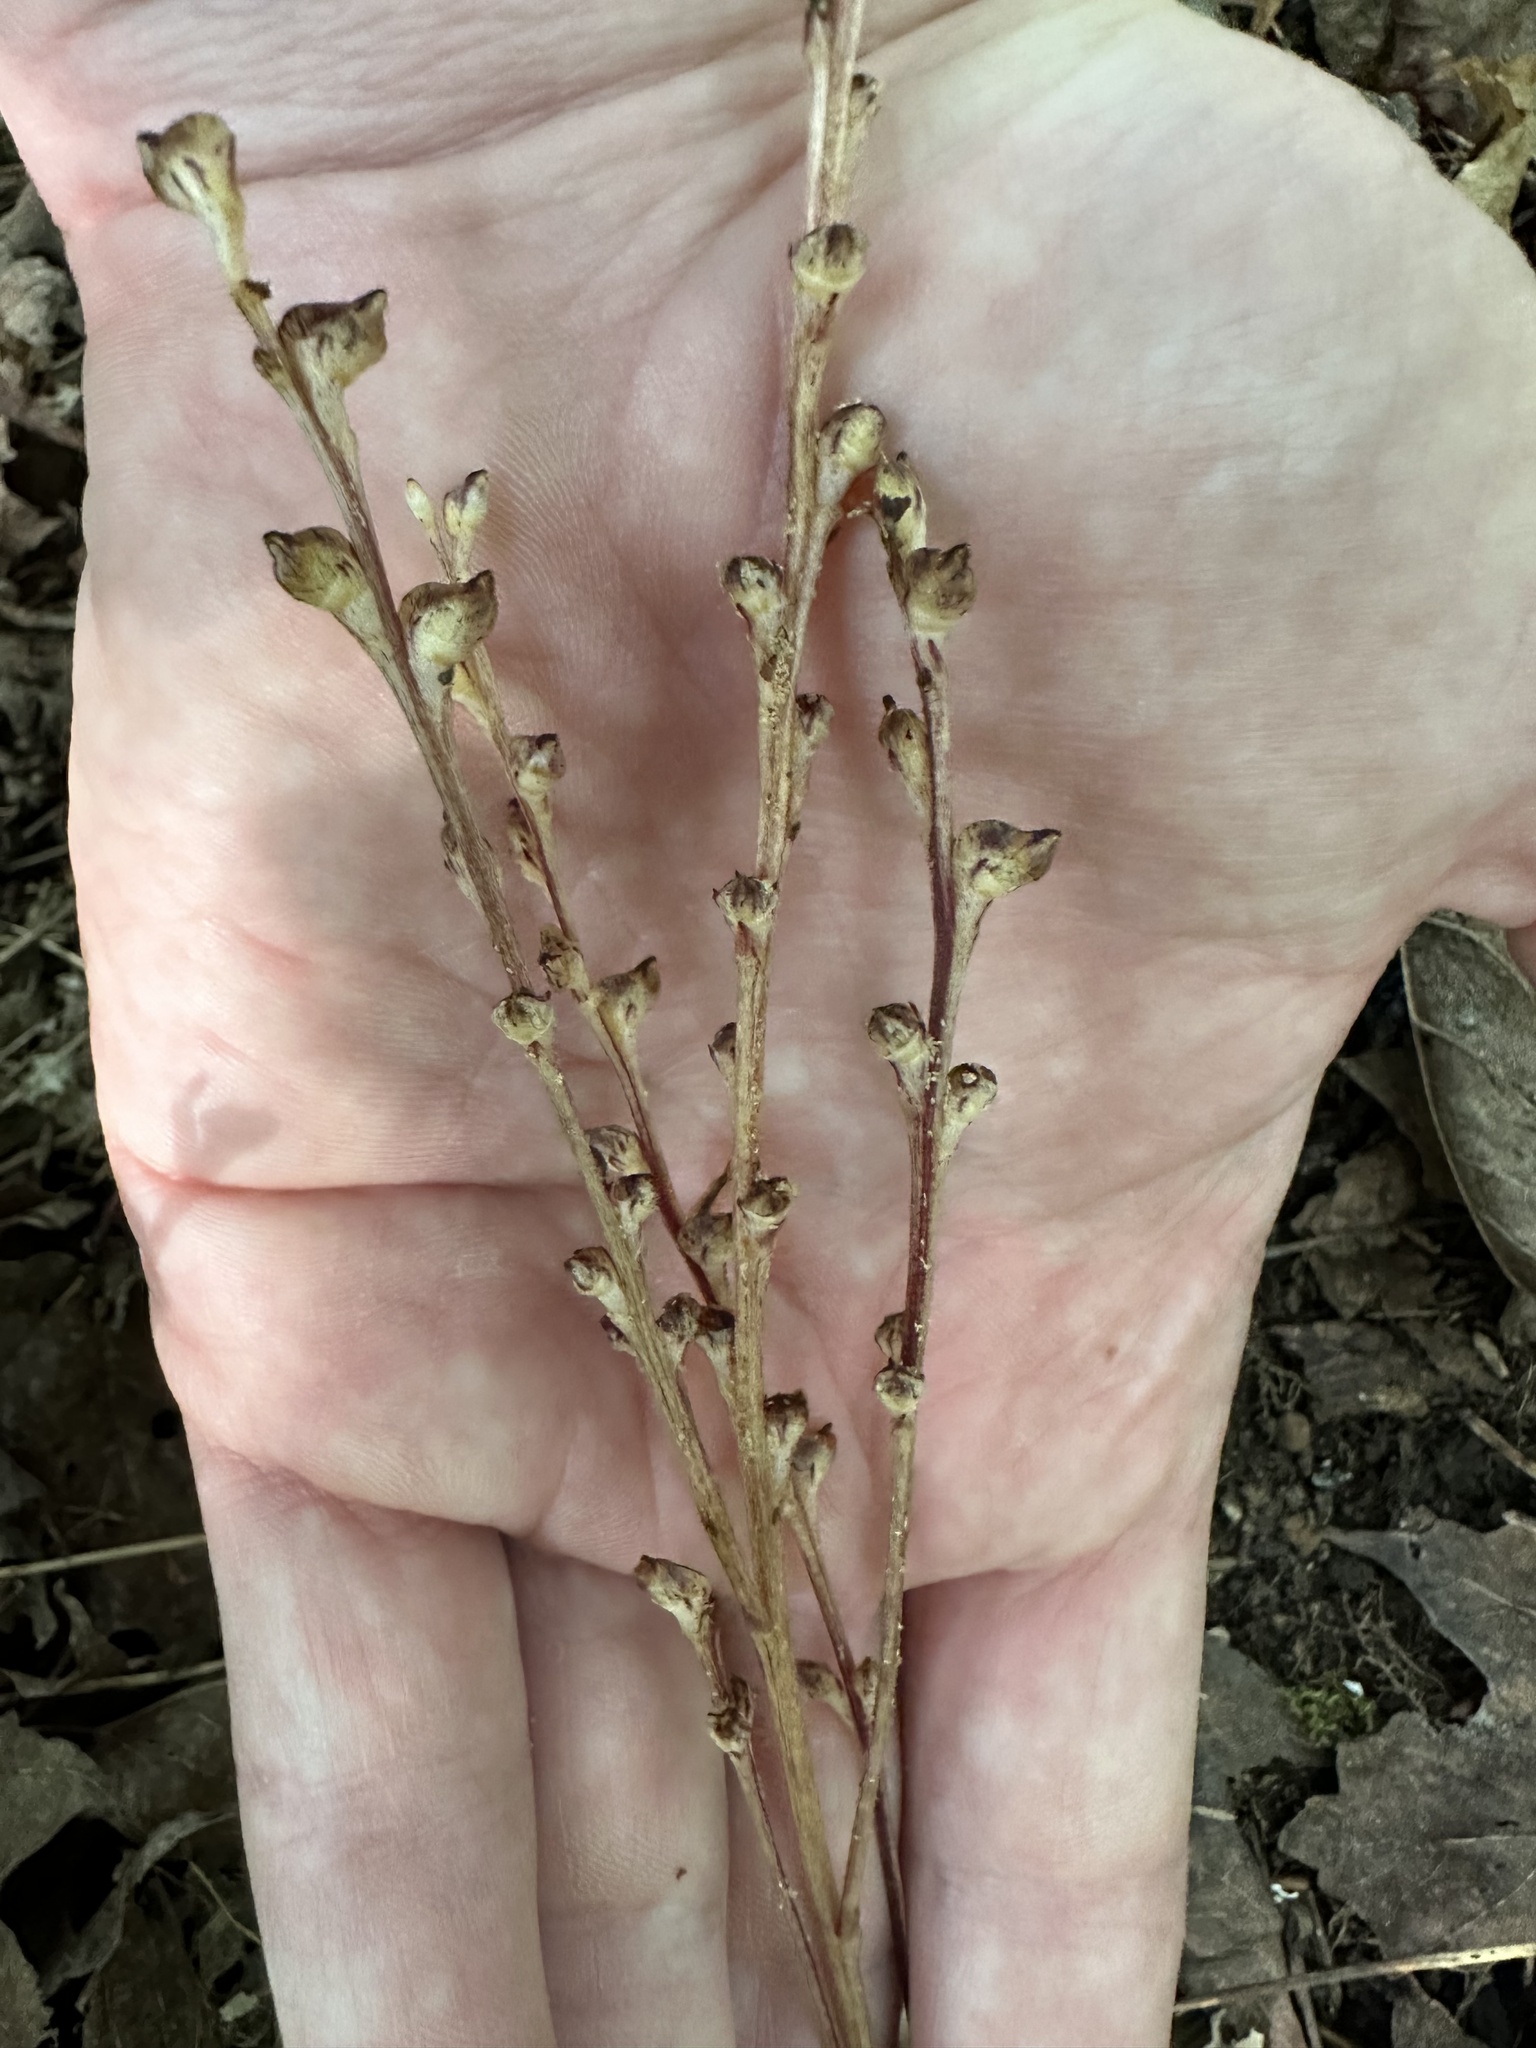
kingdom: Plantae
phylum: Tracheophyta
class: Magnoliopsida
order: Lamiales
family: Orobanchaceae
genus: Epifagus
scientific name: Epifagus virginiana
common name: Beechdrops
